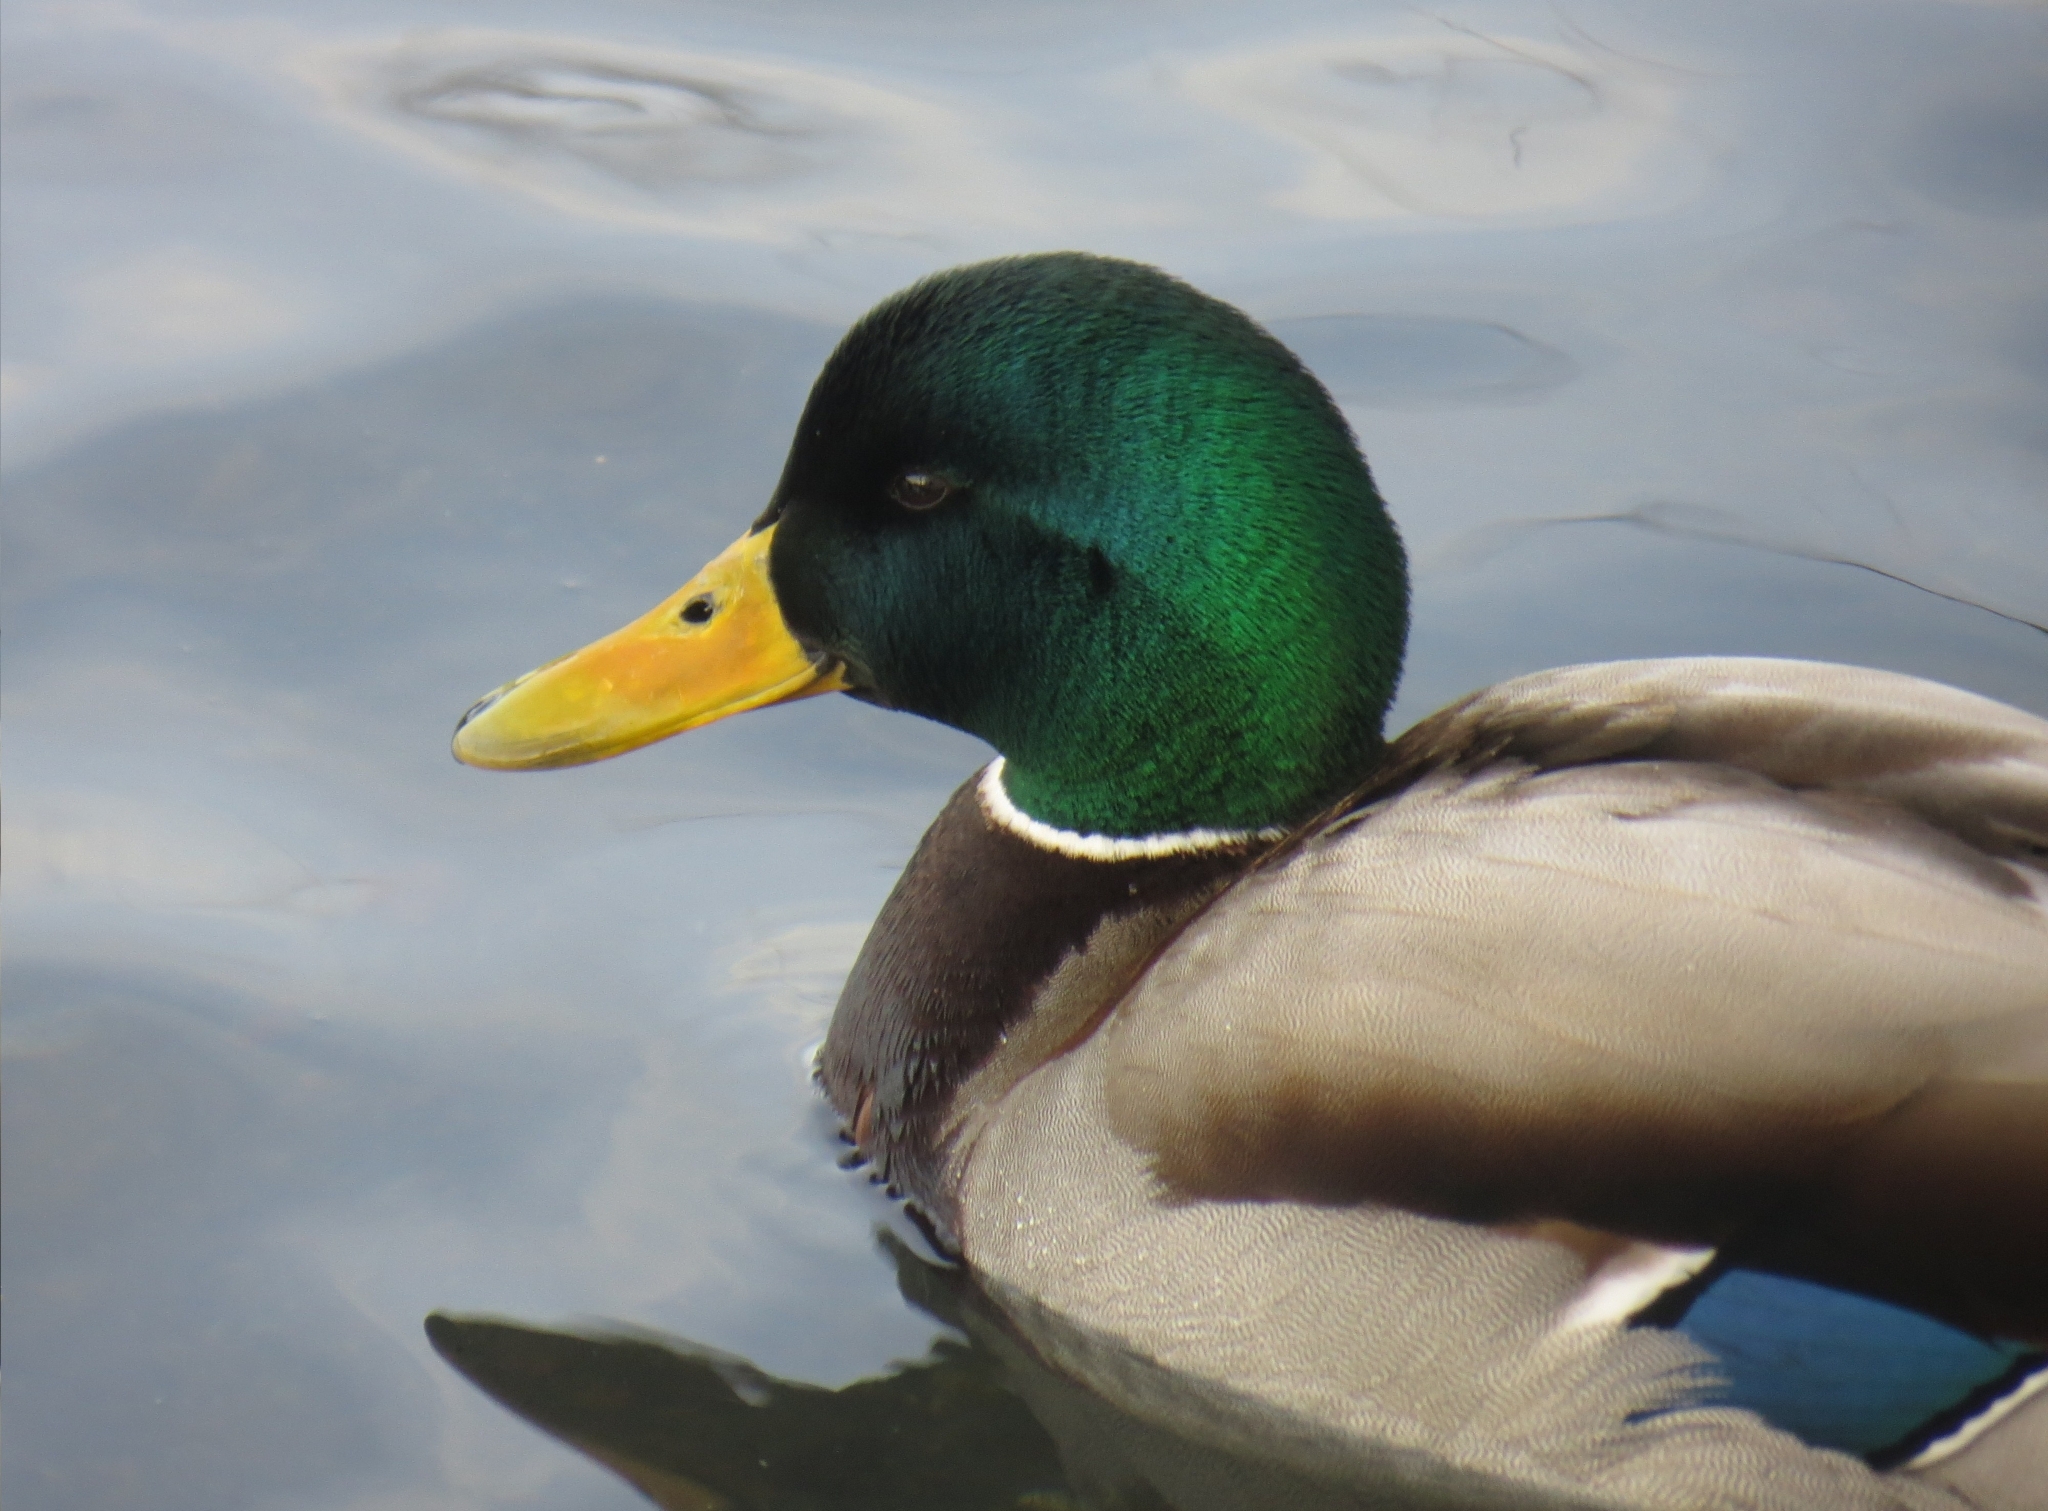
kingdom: Animalia
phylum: Chordata
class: Aves
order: Anseriformes
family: Anatidae
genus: Anas
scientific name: Anas platyrhynchos
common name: Mallard
